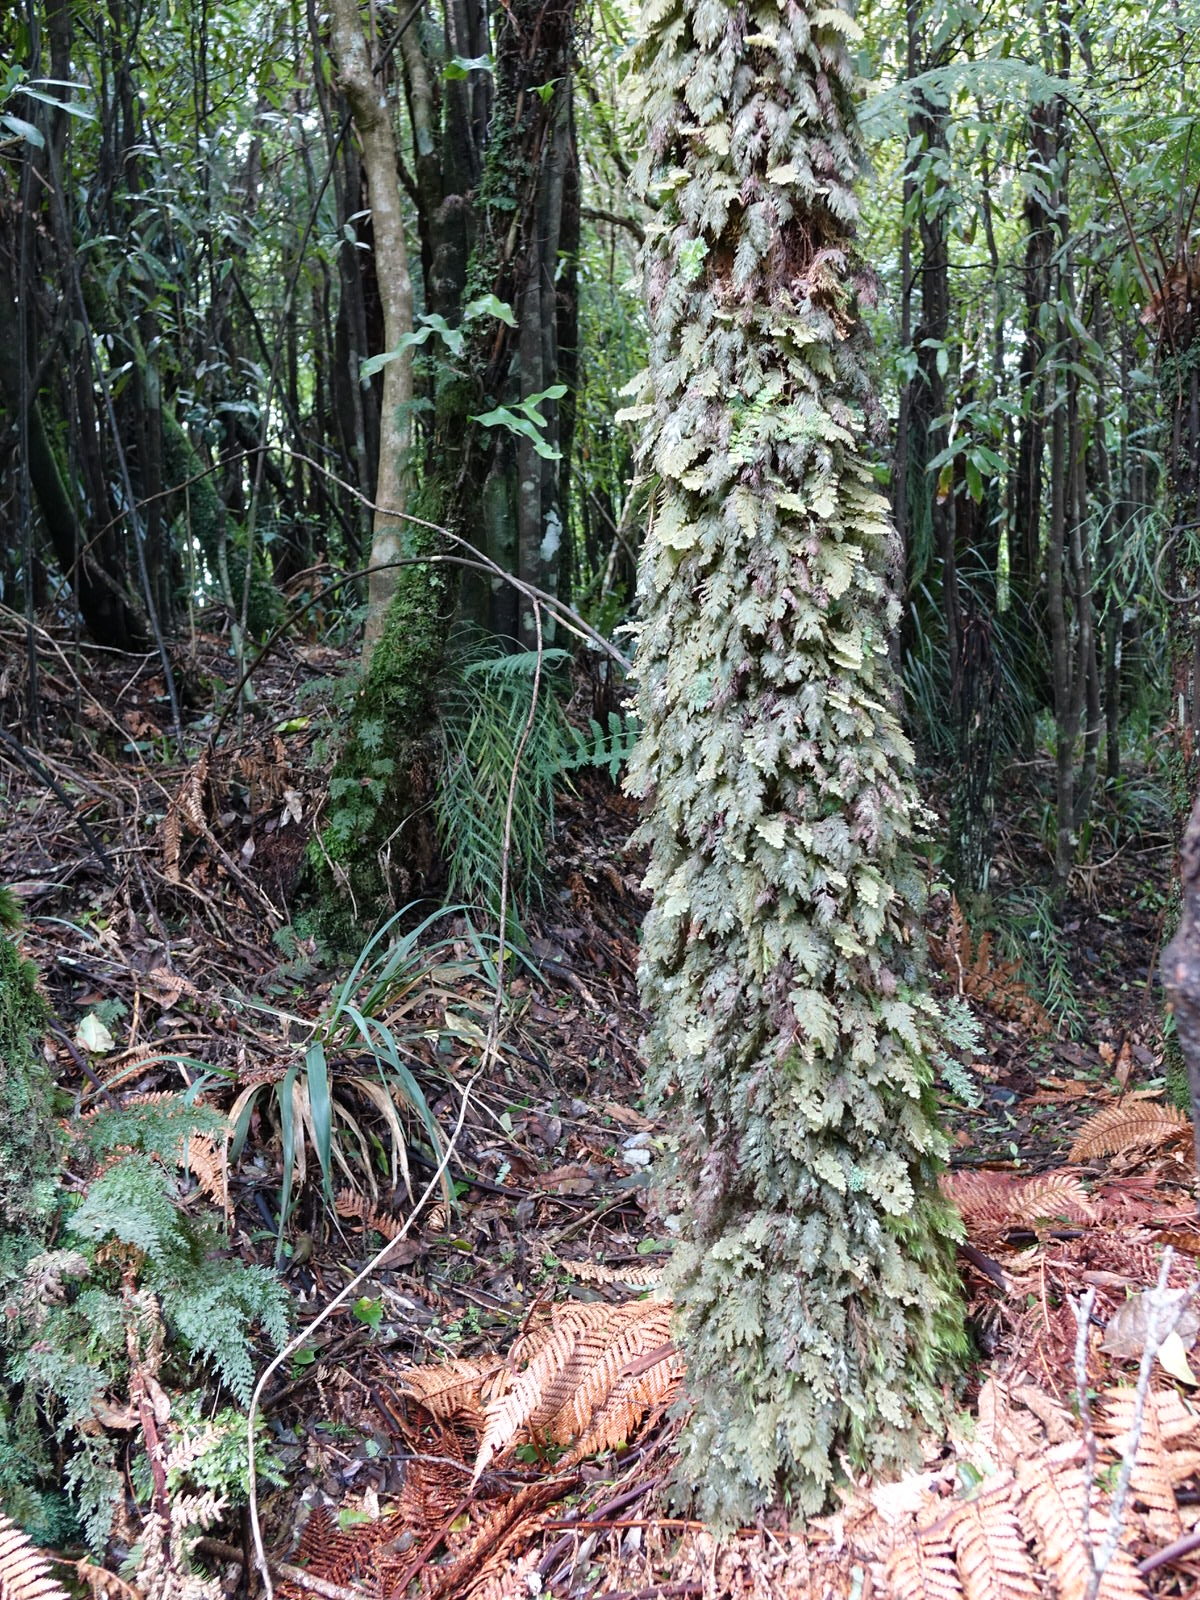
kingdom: Plantae
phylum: Tracheophyta
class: Polypodiopsida
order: Hymenophyllales
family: Hymenophyllaceae
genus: Hymenophyllum
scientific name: Hymenophyllum frankliniae
